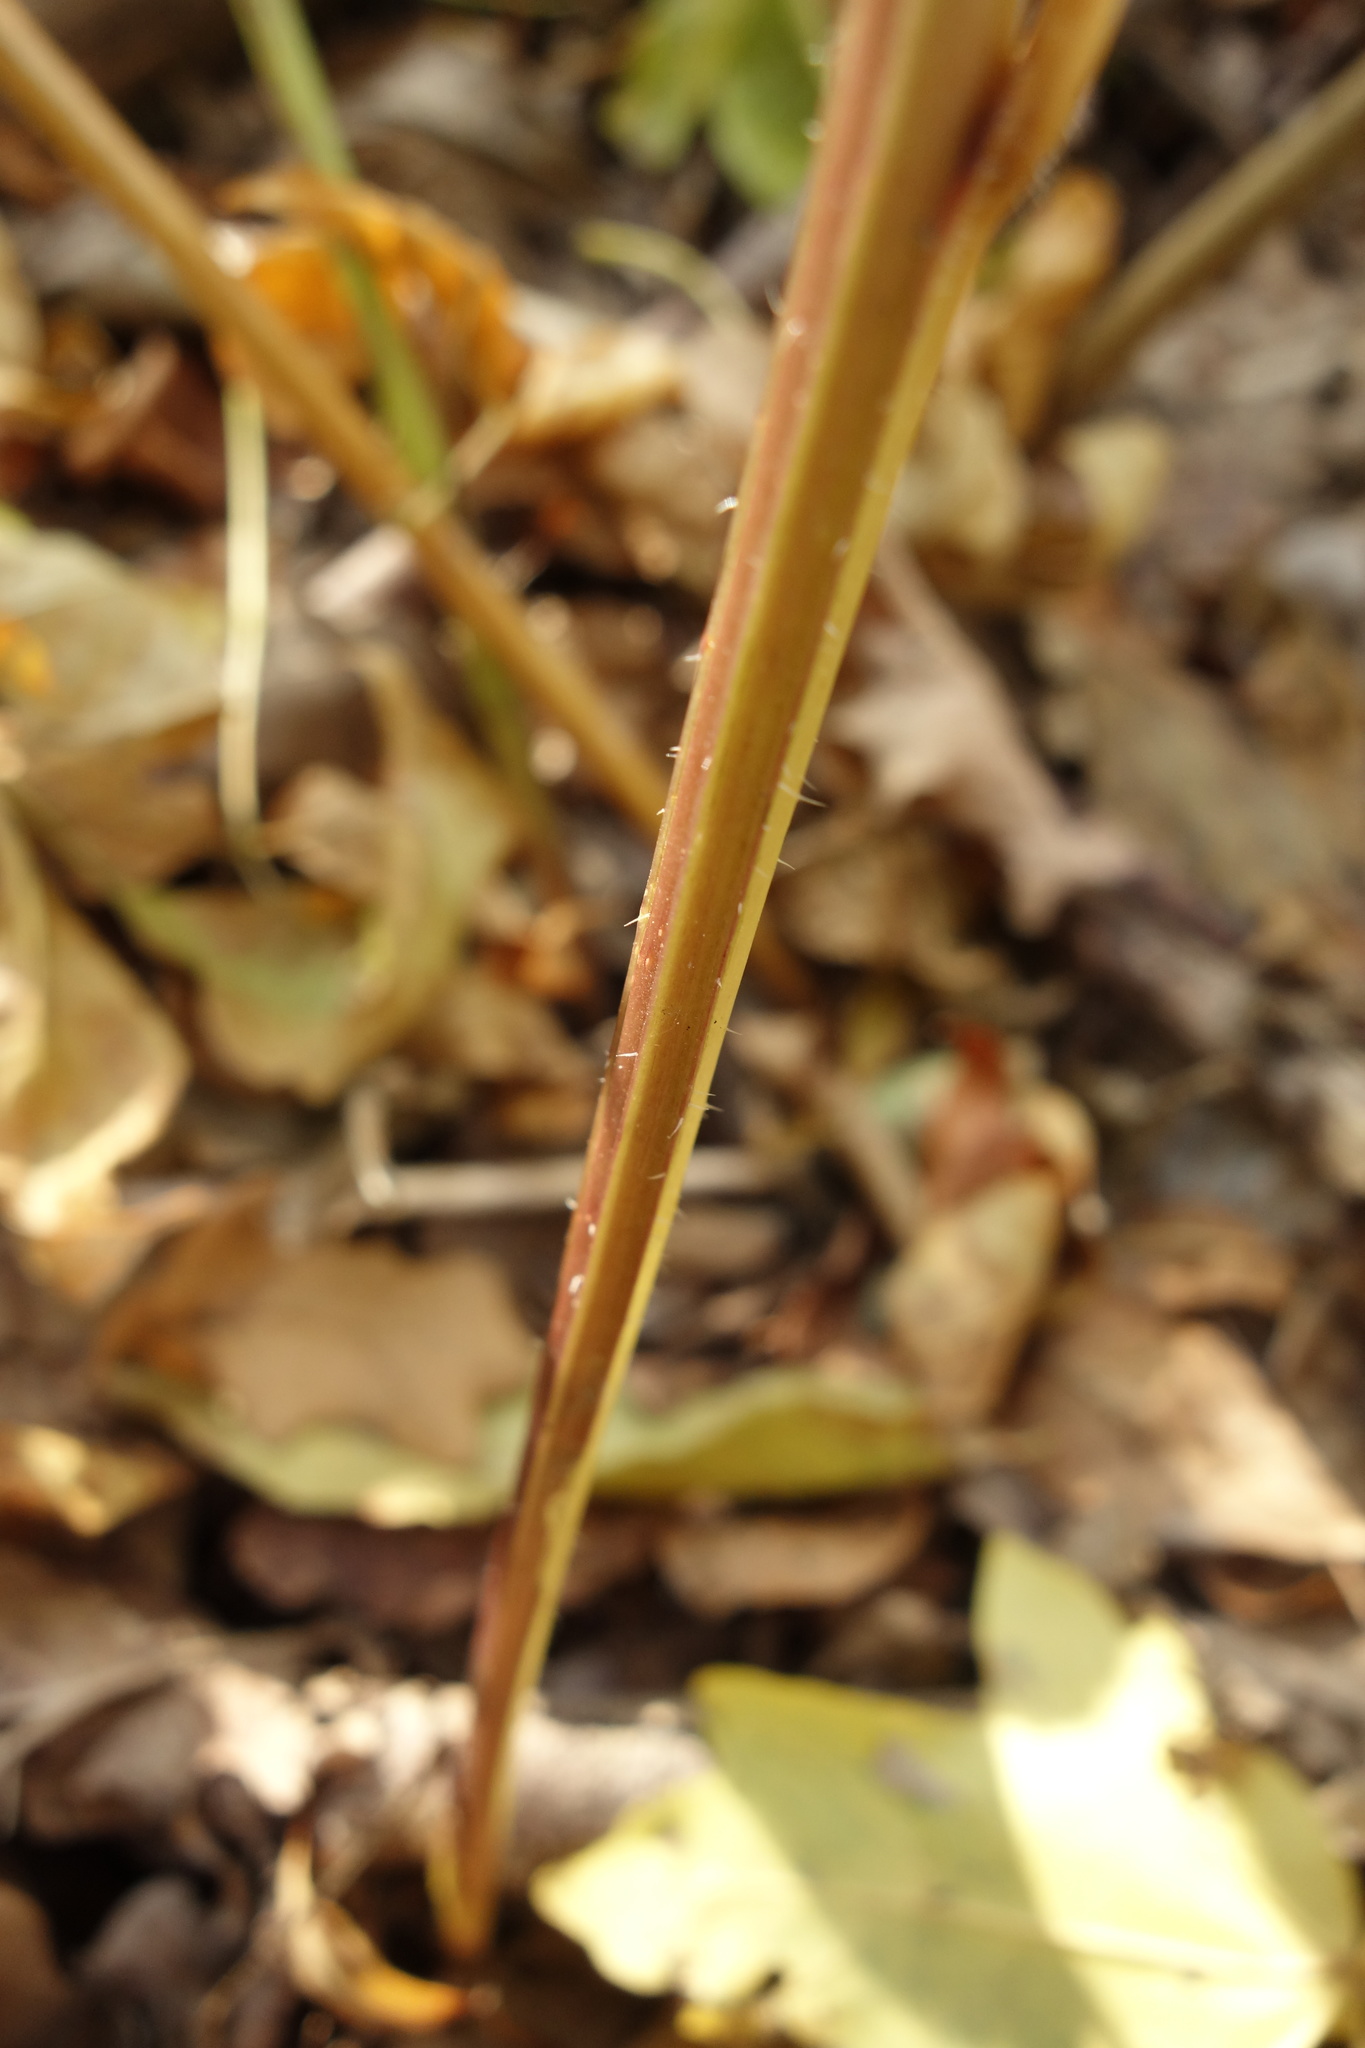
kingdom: Plantae
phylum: Tracheophyta
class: Magnoliopsida
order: Asterales
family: Campanulaceae
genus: Campanula
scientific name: Campanula trachelium
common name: Nettle-leaved bellflower
